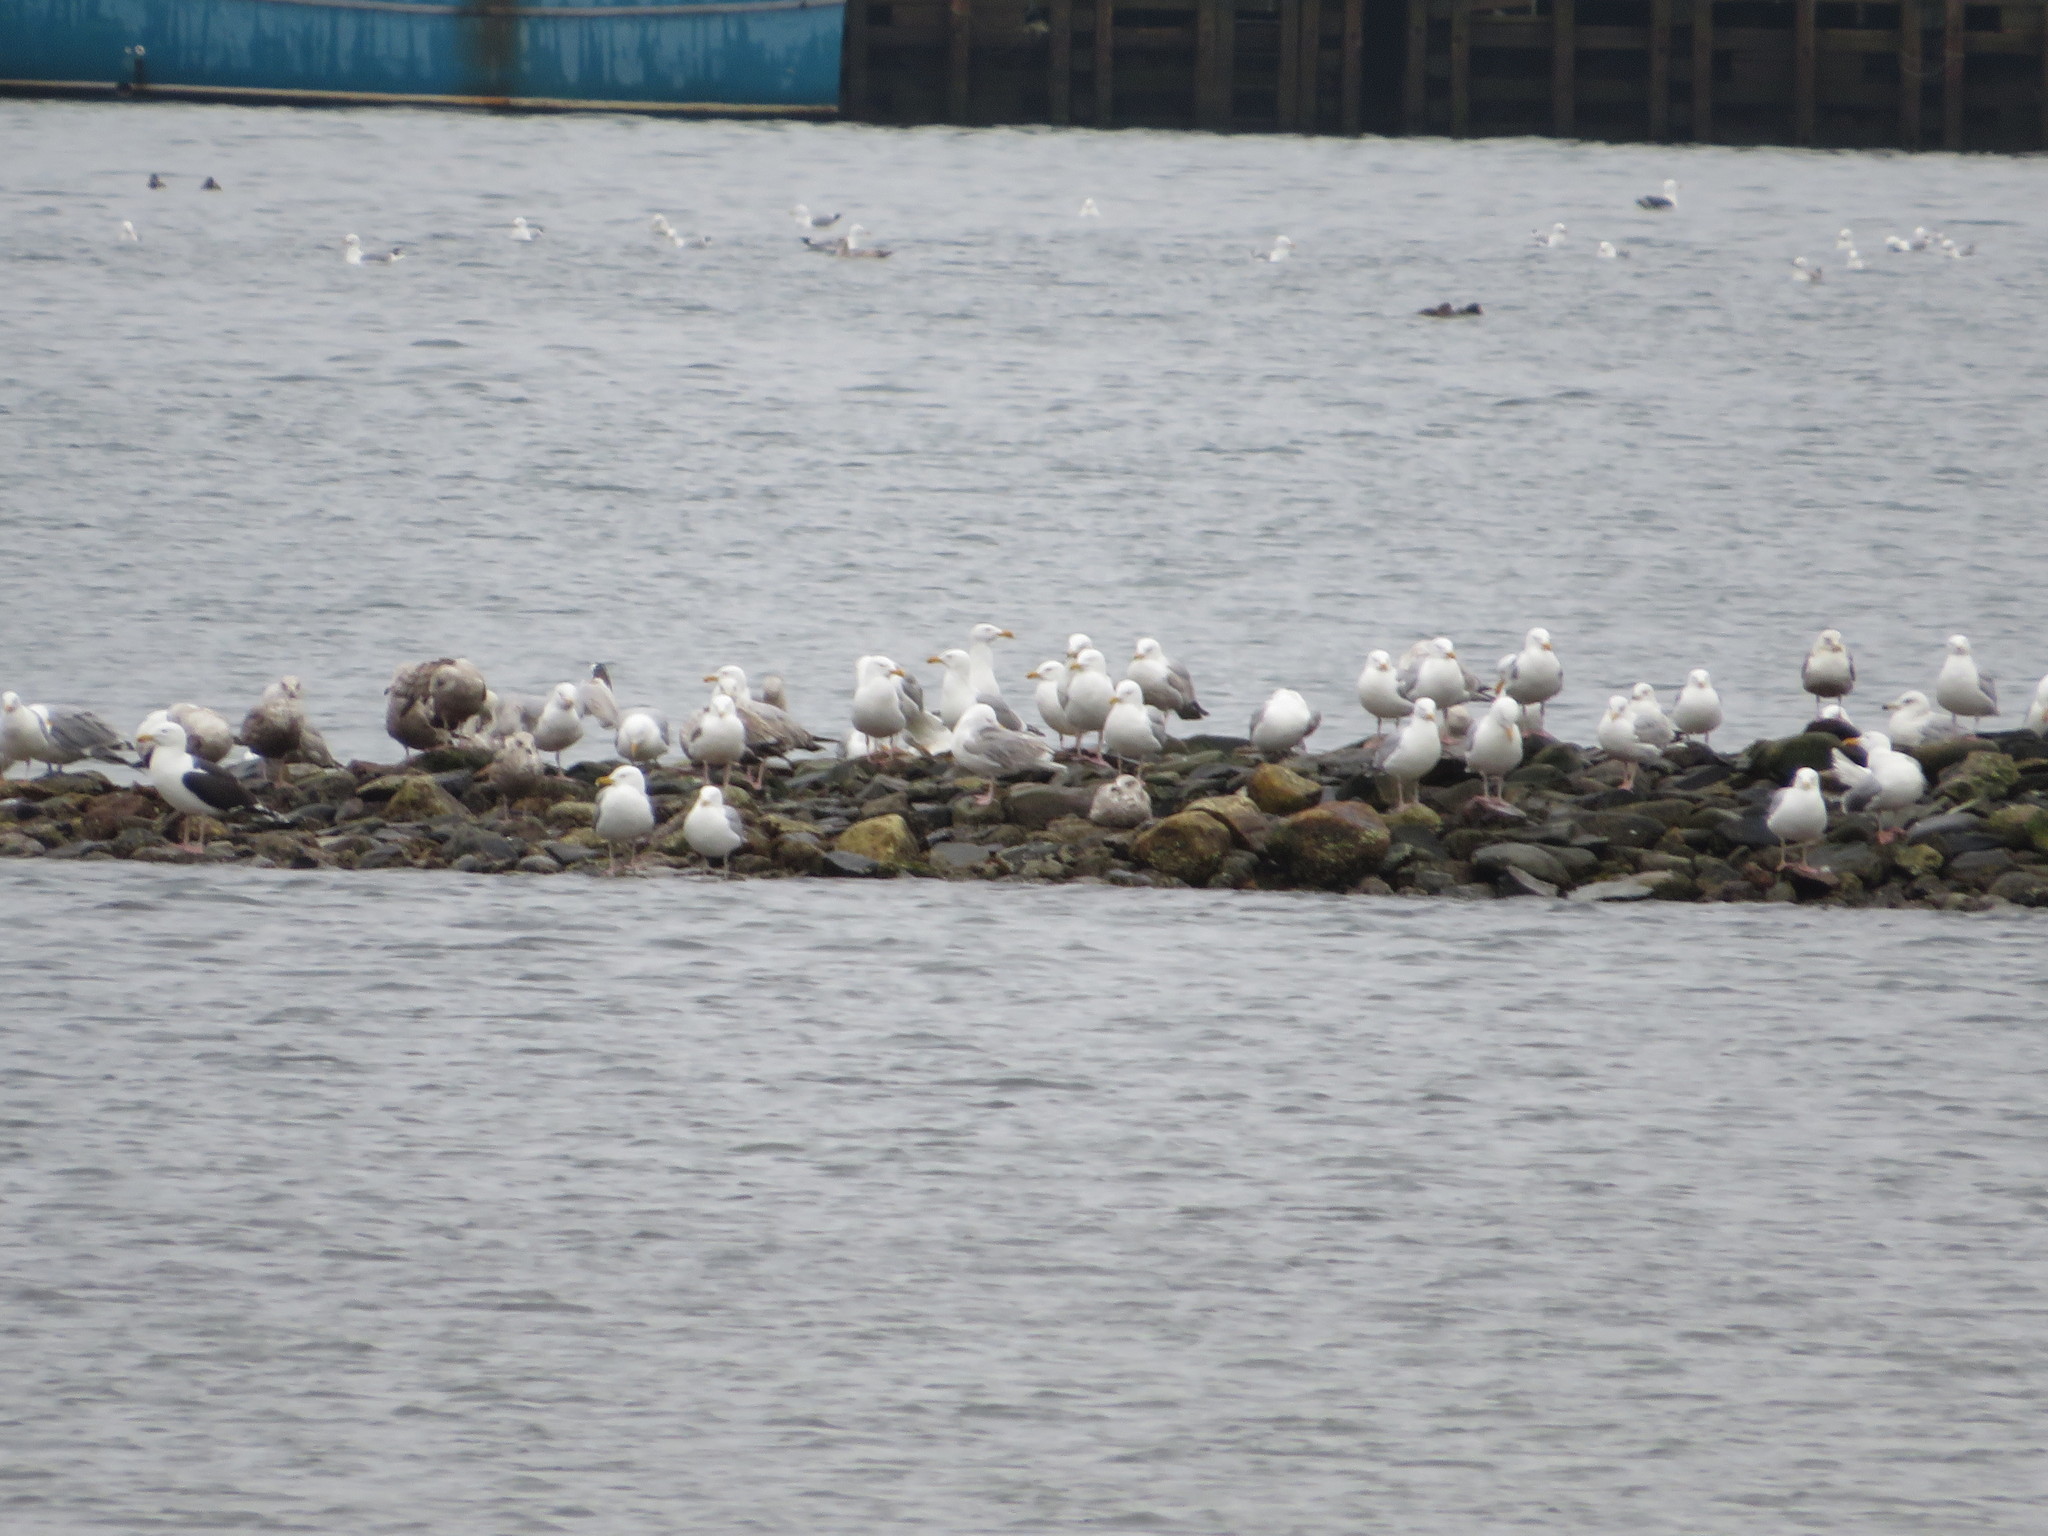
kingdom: Animalia
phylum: Chordata
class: Aves
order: Charadriiformes
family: Laridae
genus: Larus
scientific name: Larus argentatus
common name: Herring gull
